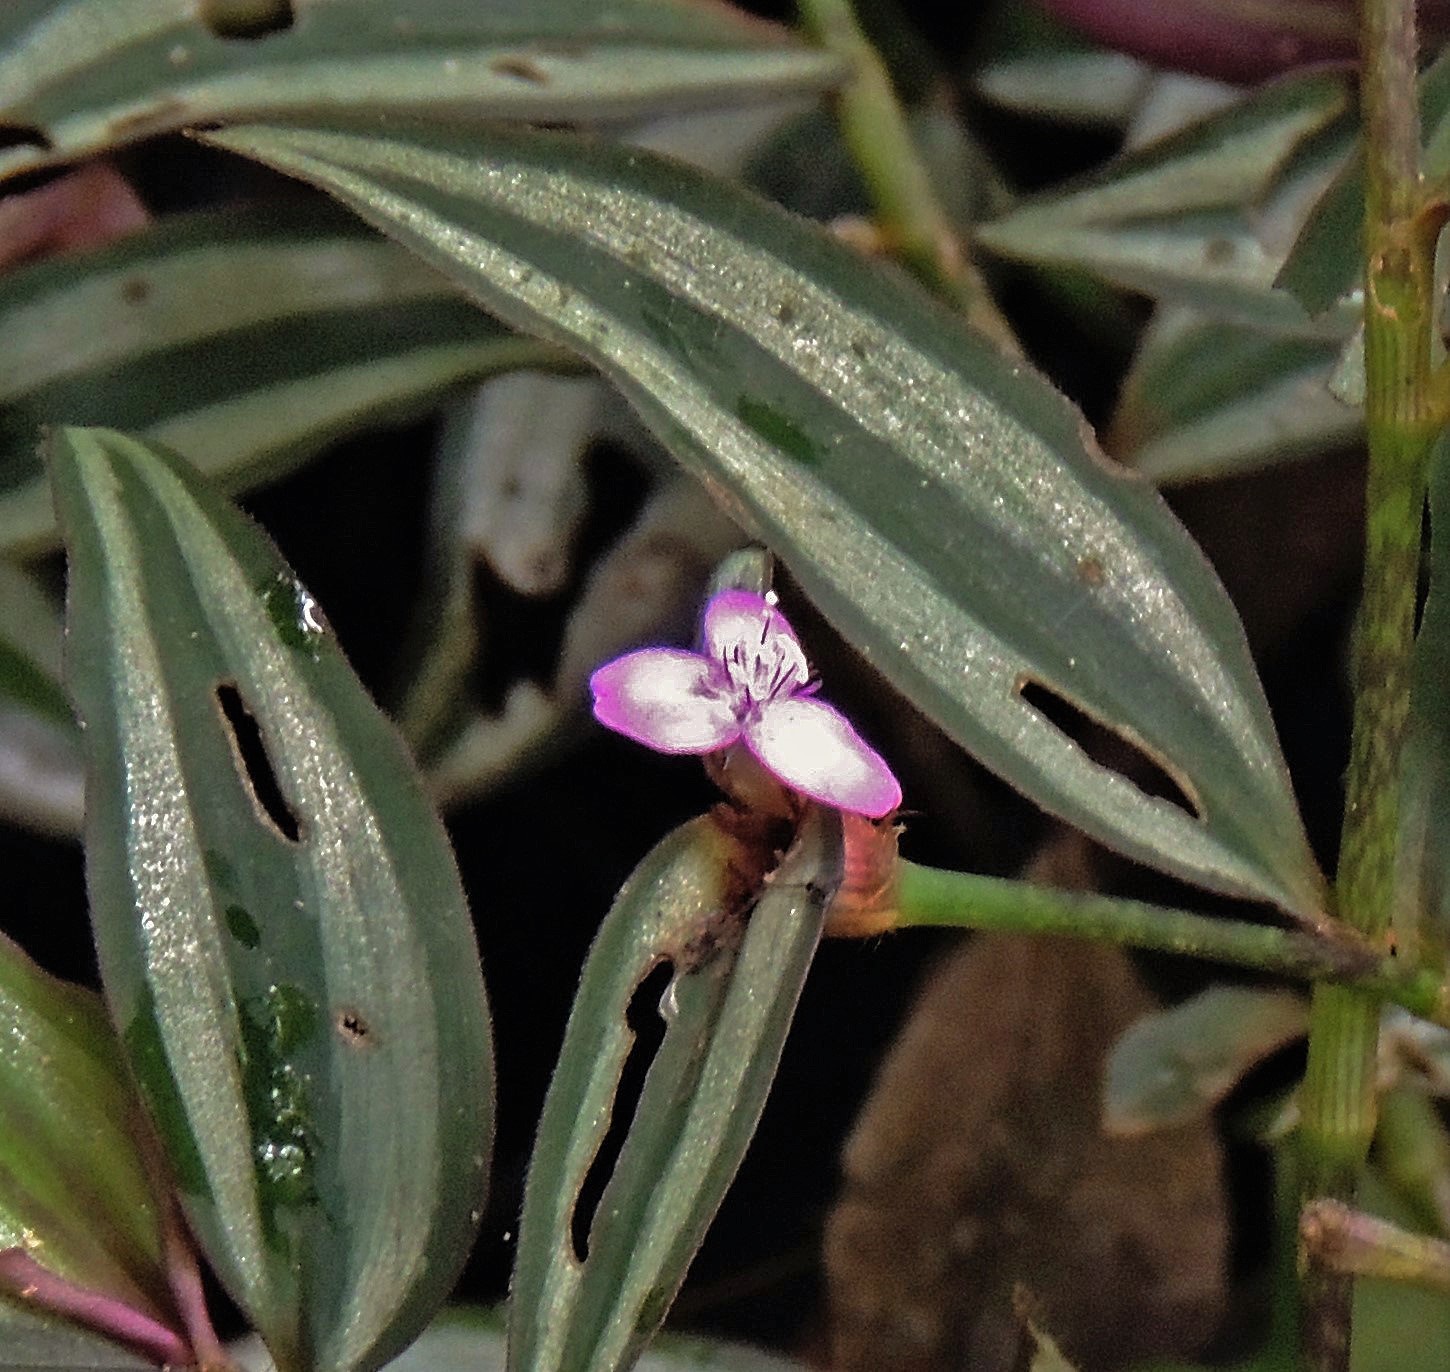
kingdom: Plantae
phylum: Tracheophyta
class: Liliopsida
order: Commelinales
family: Commelinaceae
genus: Tradescantia
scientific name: Tradescantia zebrina
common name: Inchplant
